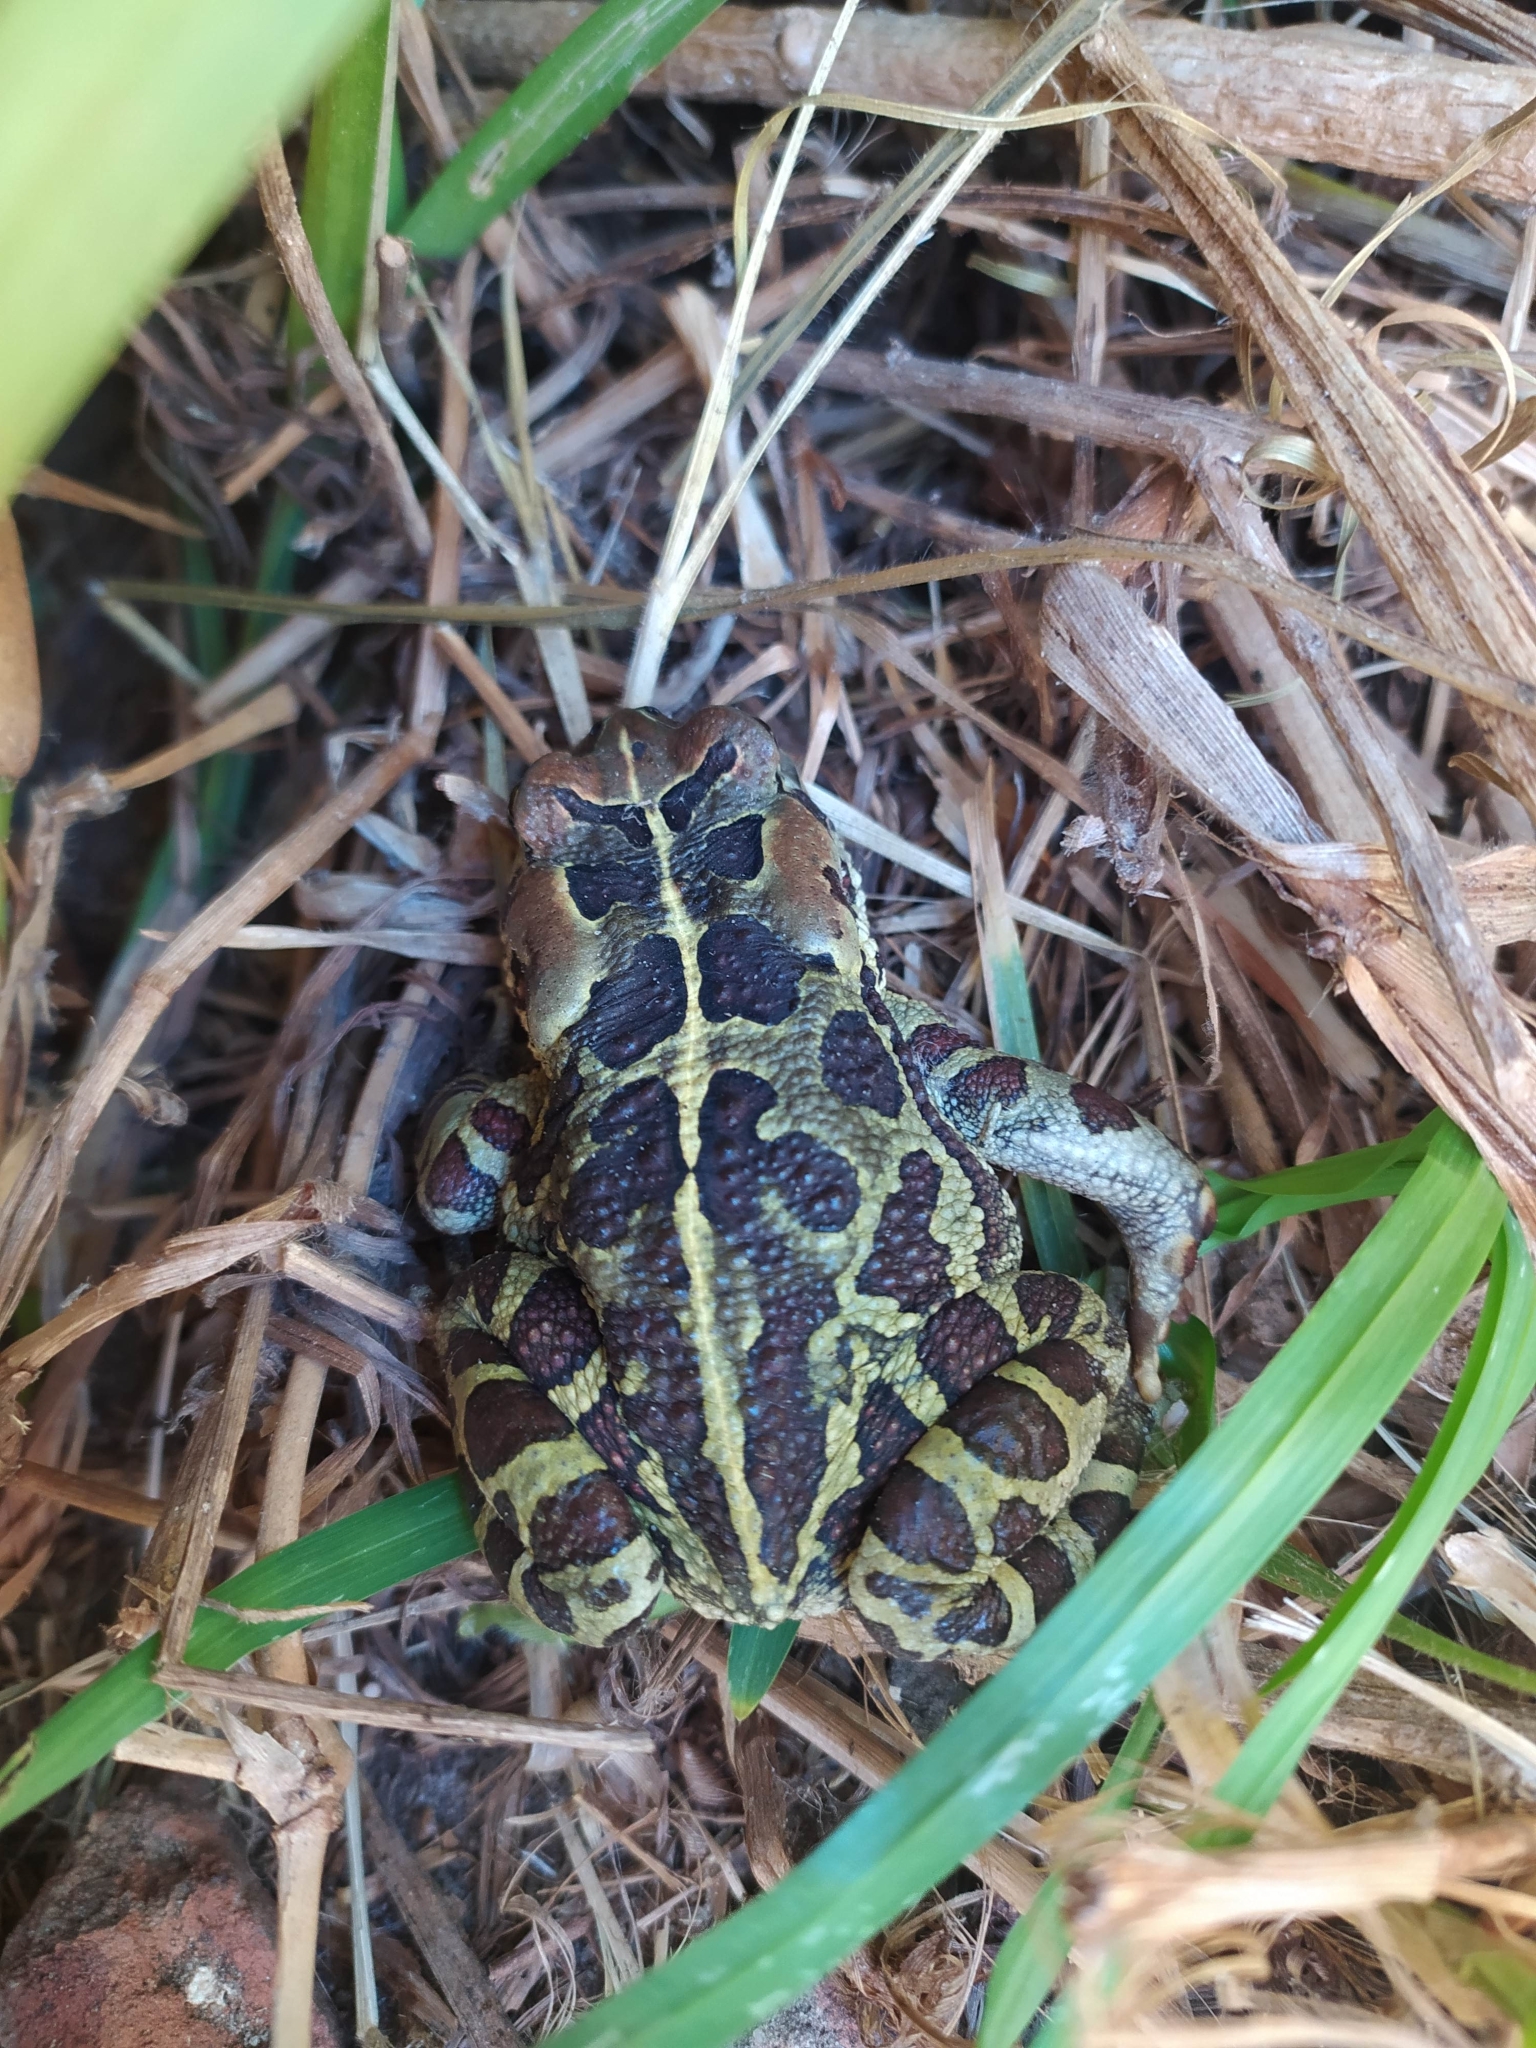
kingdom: Animalia
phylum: Chordata
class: Amphibia
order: Anura
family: Bufonidae
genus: Sclerophrys
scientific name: Sclerophrys pantherina
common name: Panther toad
